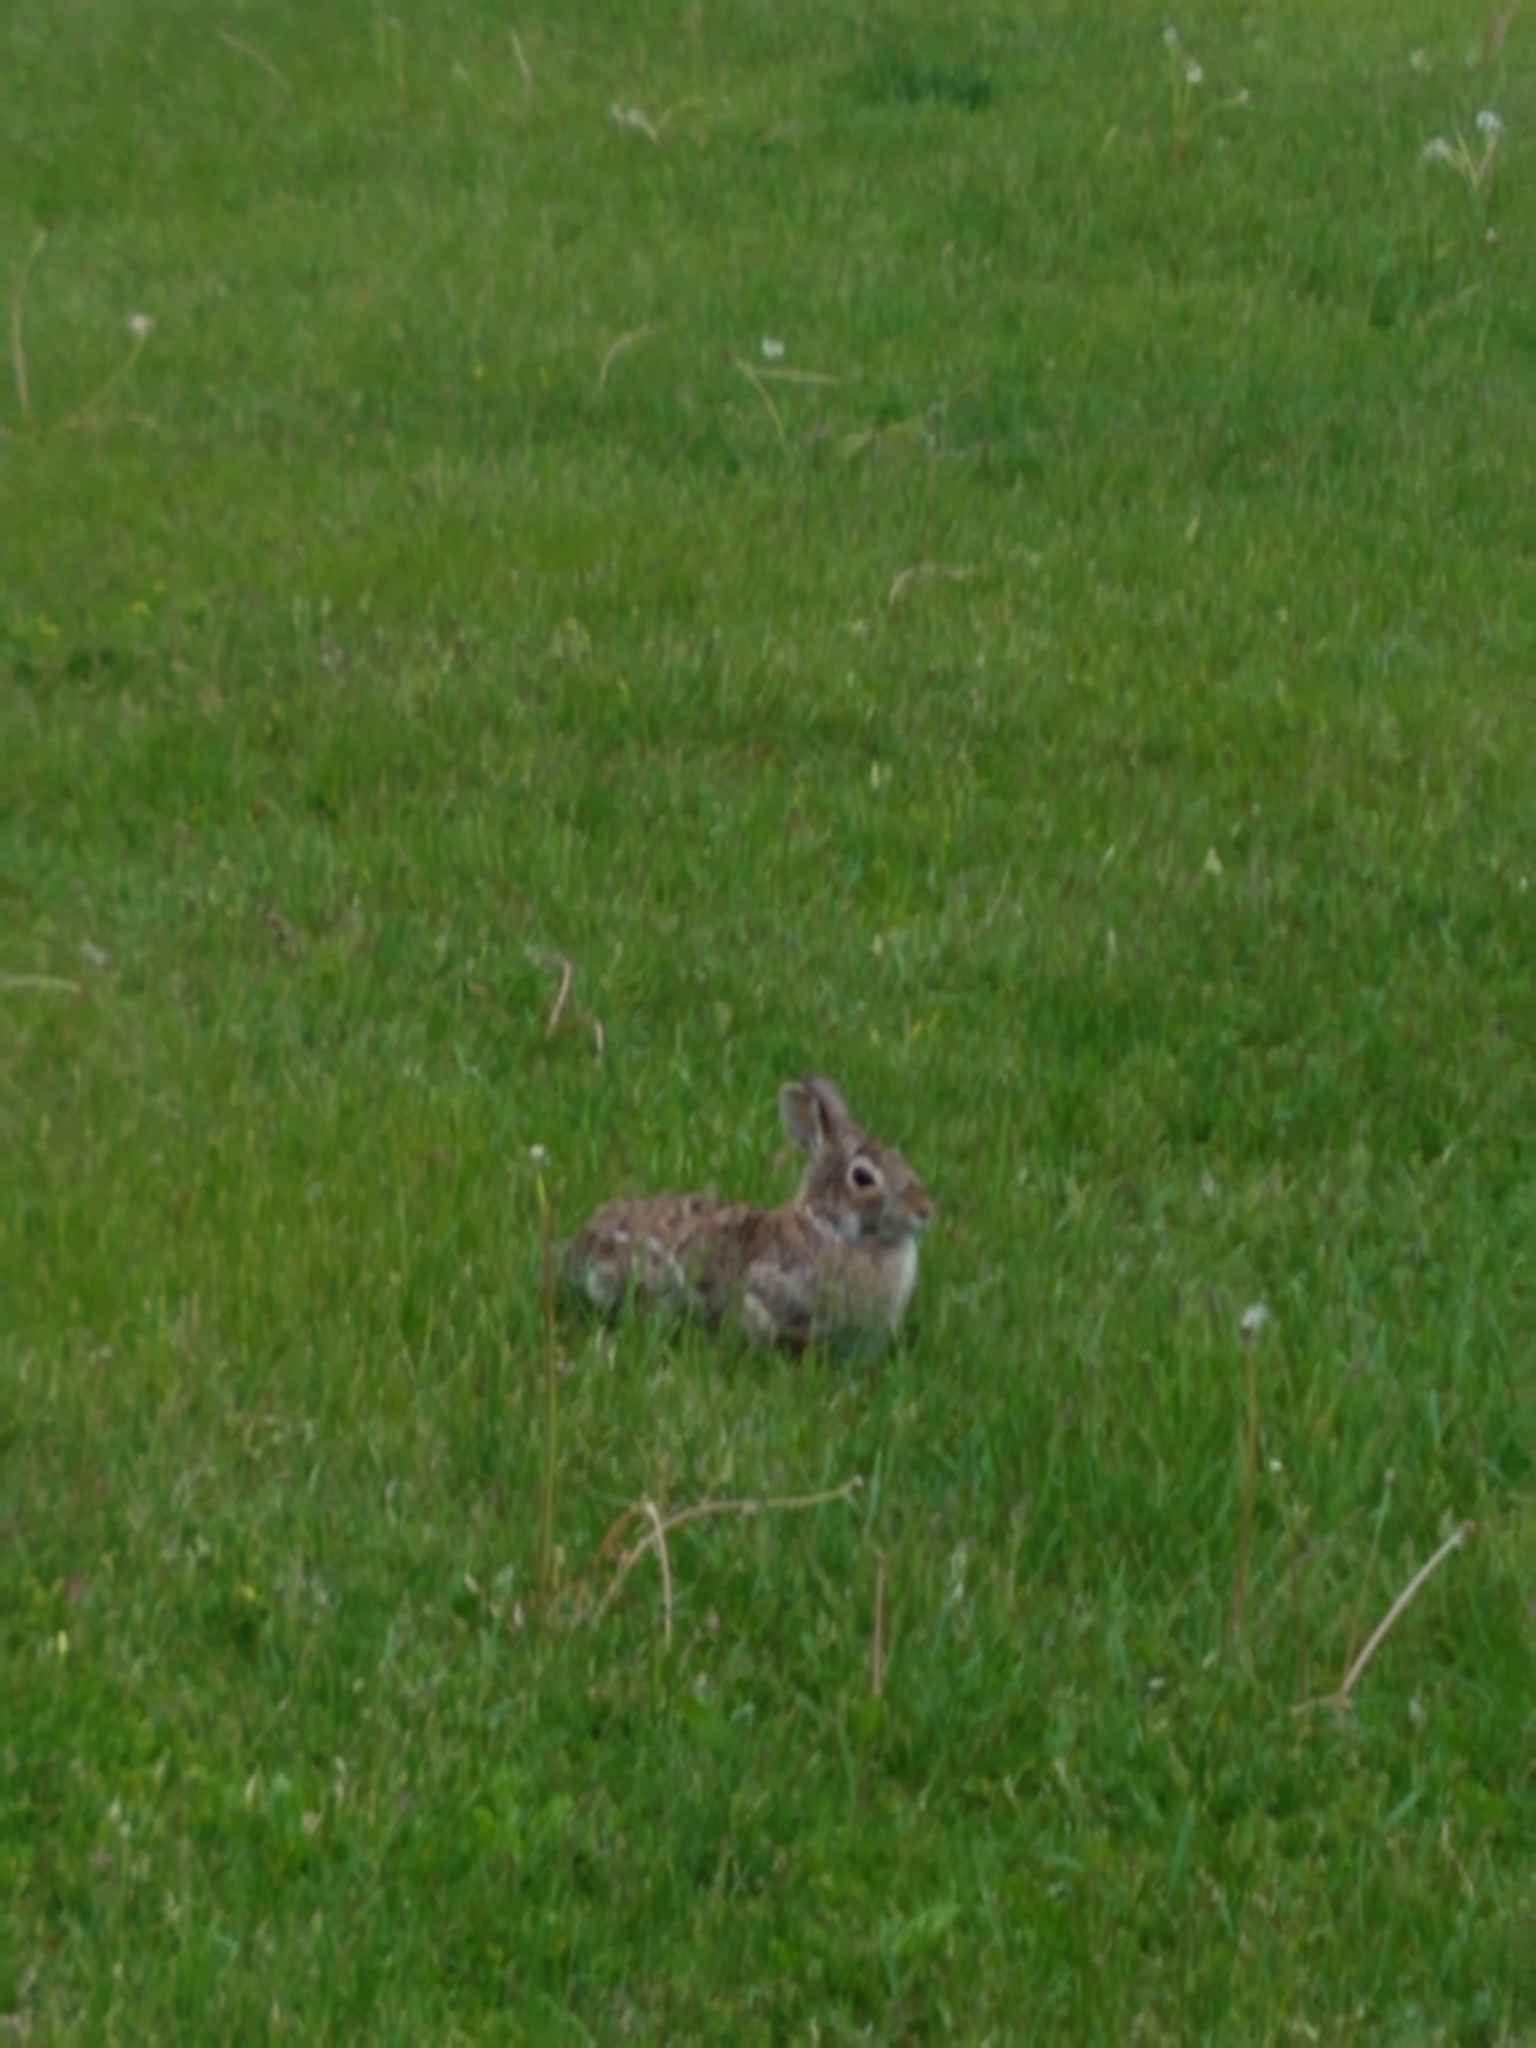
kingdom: Animalia
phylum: Chordata
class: Mammalia
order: Lagomorpha
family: Leporidae
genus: Sylvilagus
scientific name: Sylvilagus floridanus
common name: Eastern cottontail
